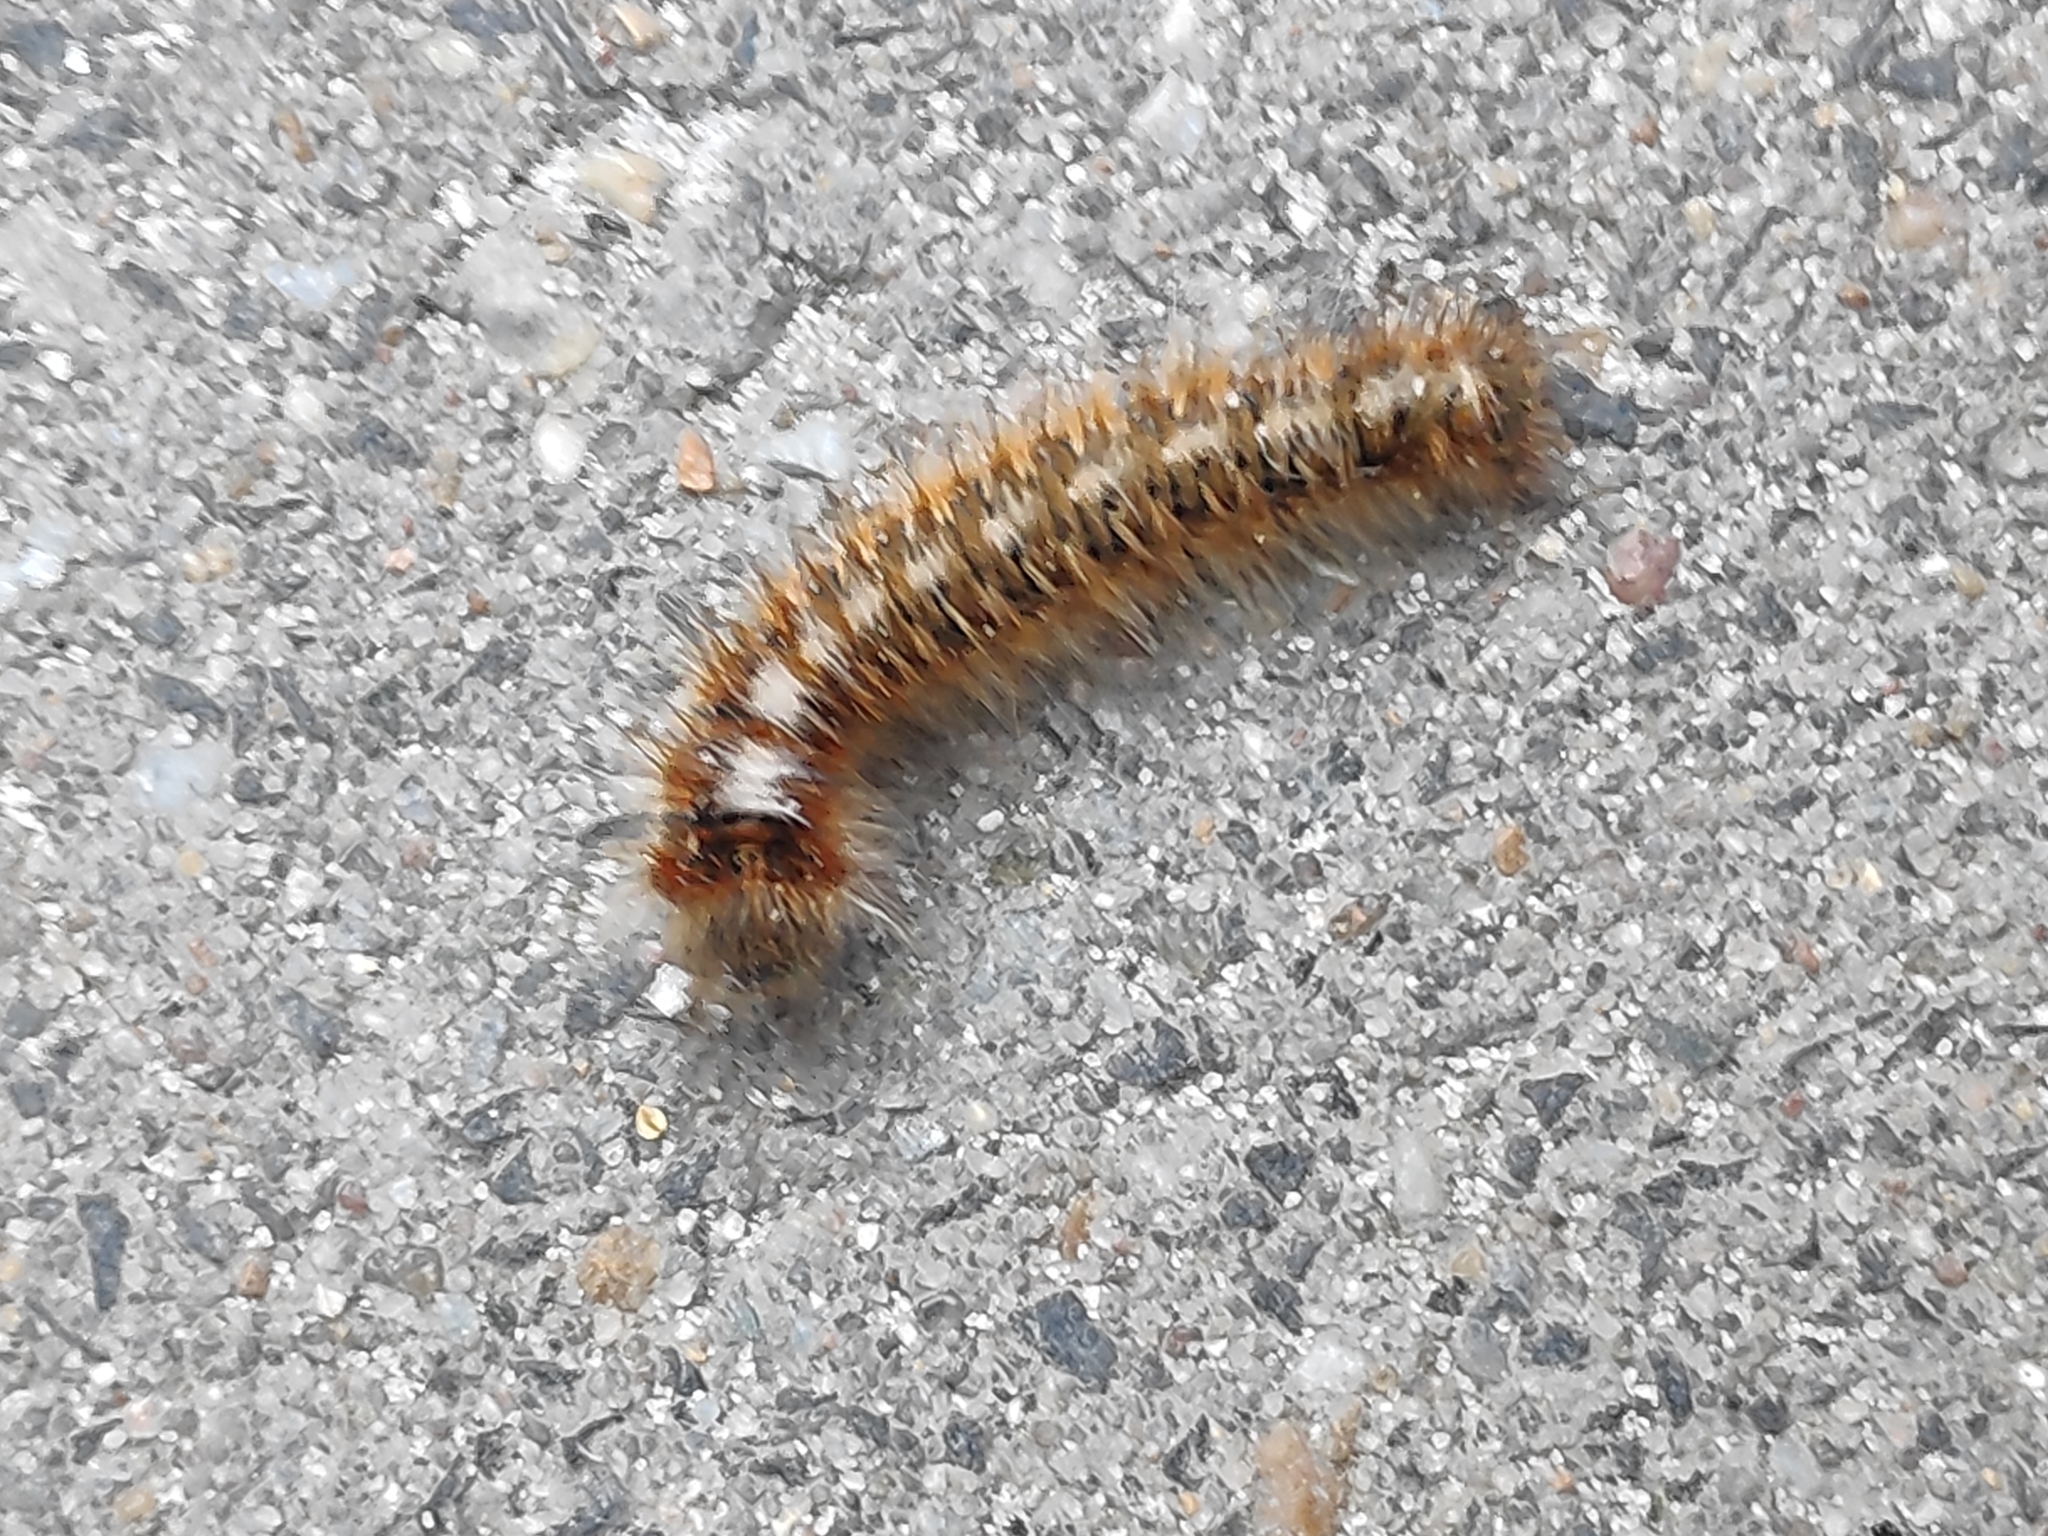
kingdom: Animalia
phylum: Arthropoda
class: Insecta
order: Lepidoptera
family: Lasiocampidae
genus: Lasiocampa
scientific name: Lasiocampa quercus
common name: Oak eggar
